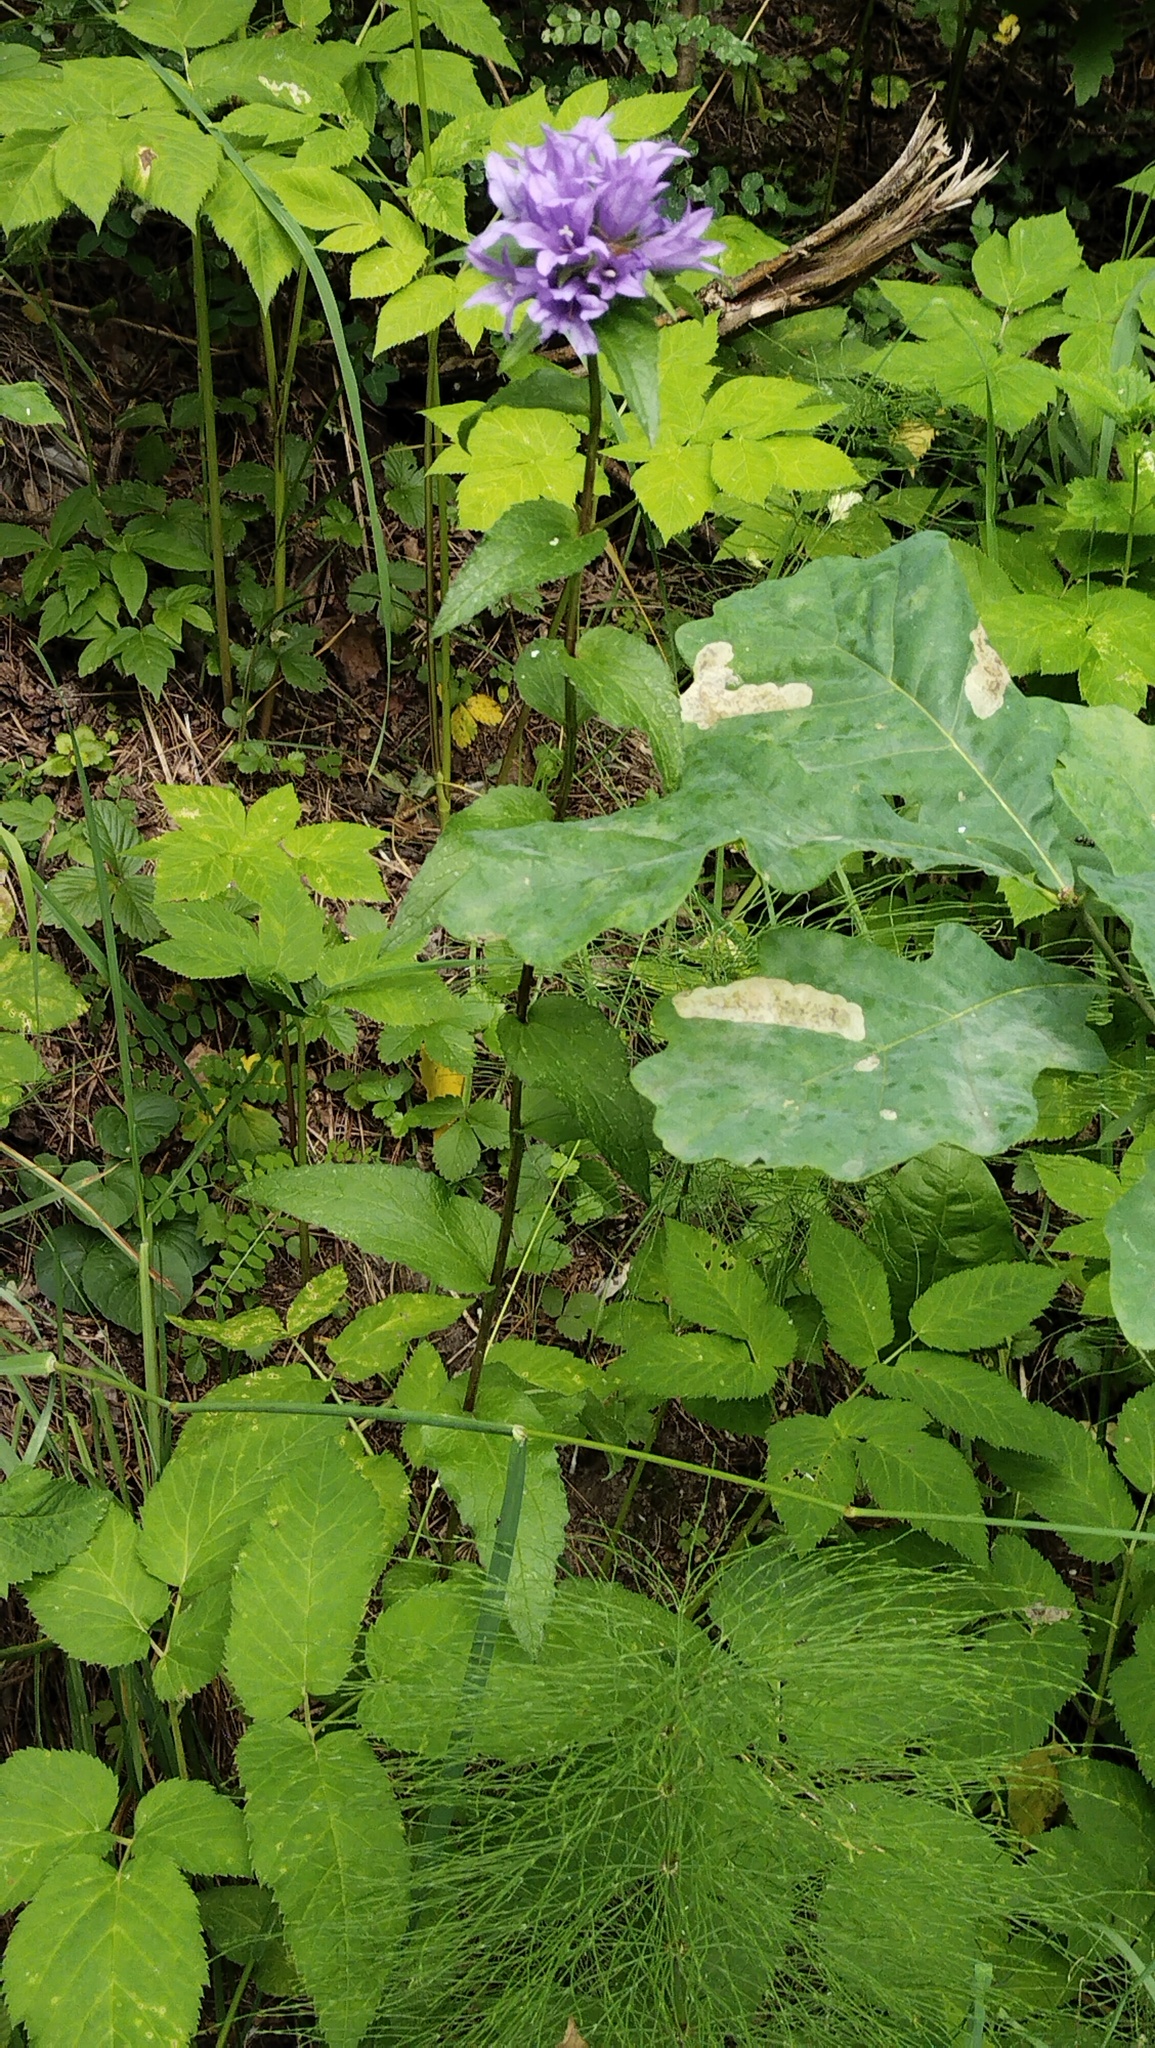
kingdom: Plantae
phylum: Tracheophyta
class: Magnoliopsida
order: Asterales
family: Campanulaceae
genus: Campanula
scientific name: Campanula glomerata
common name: Clustered bellflower
